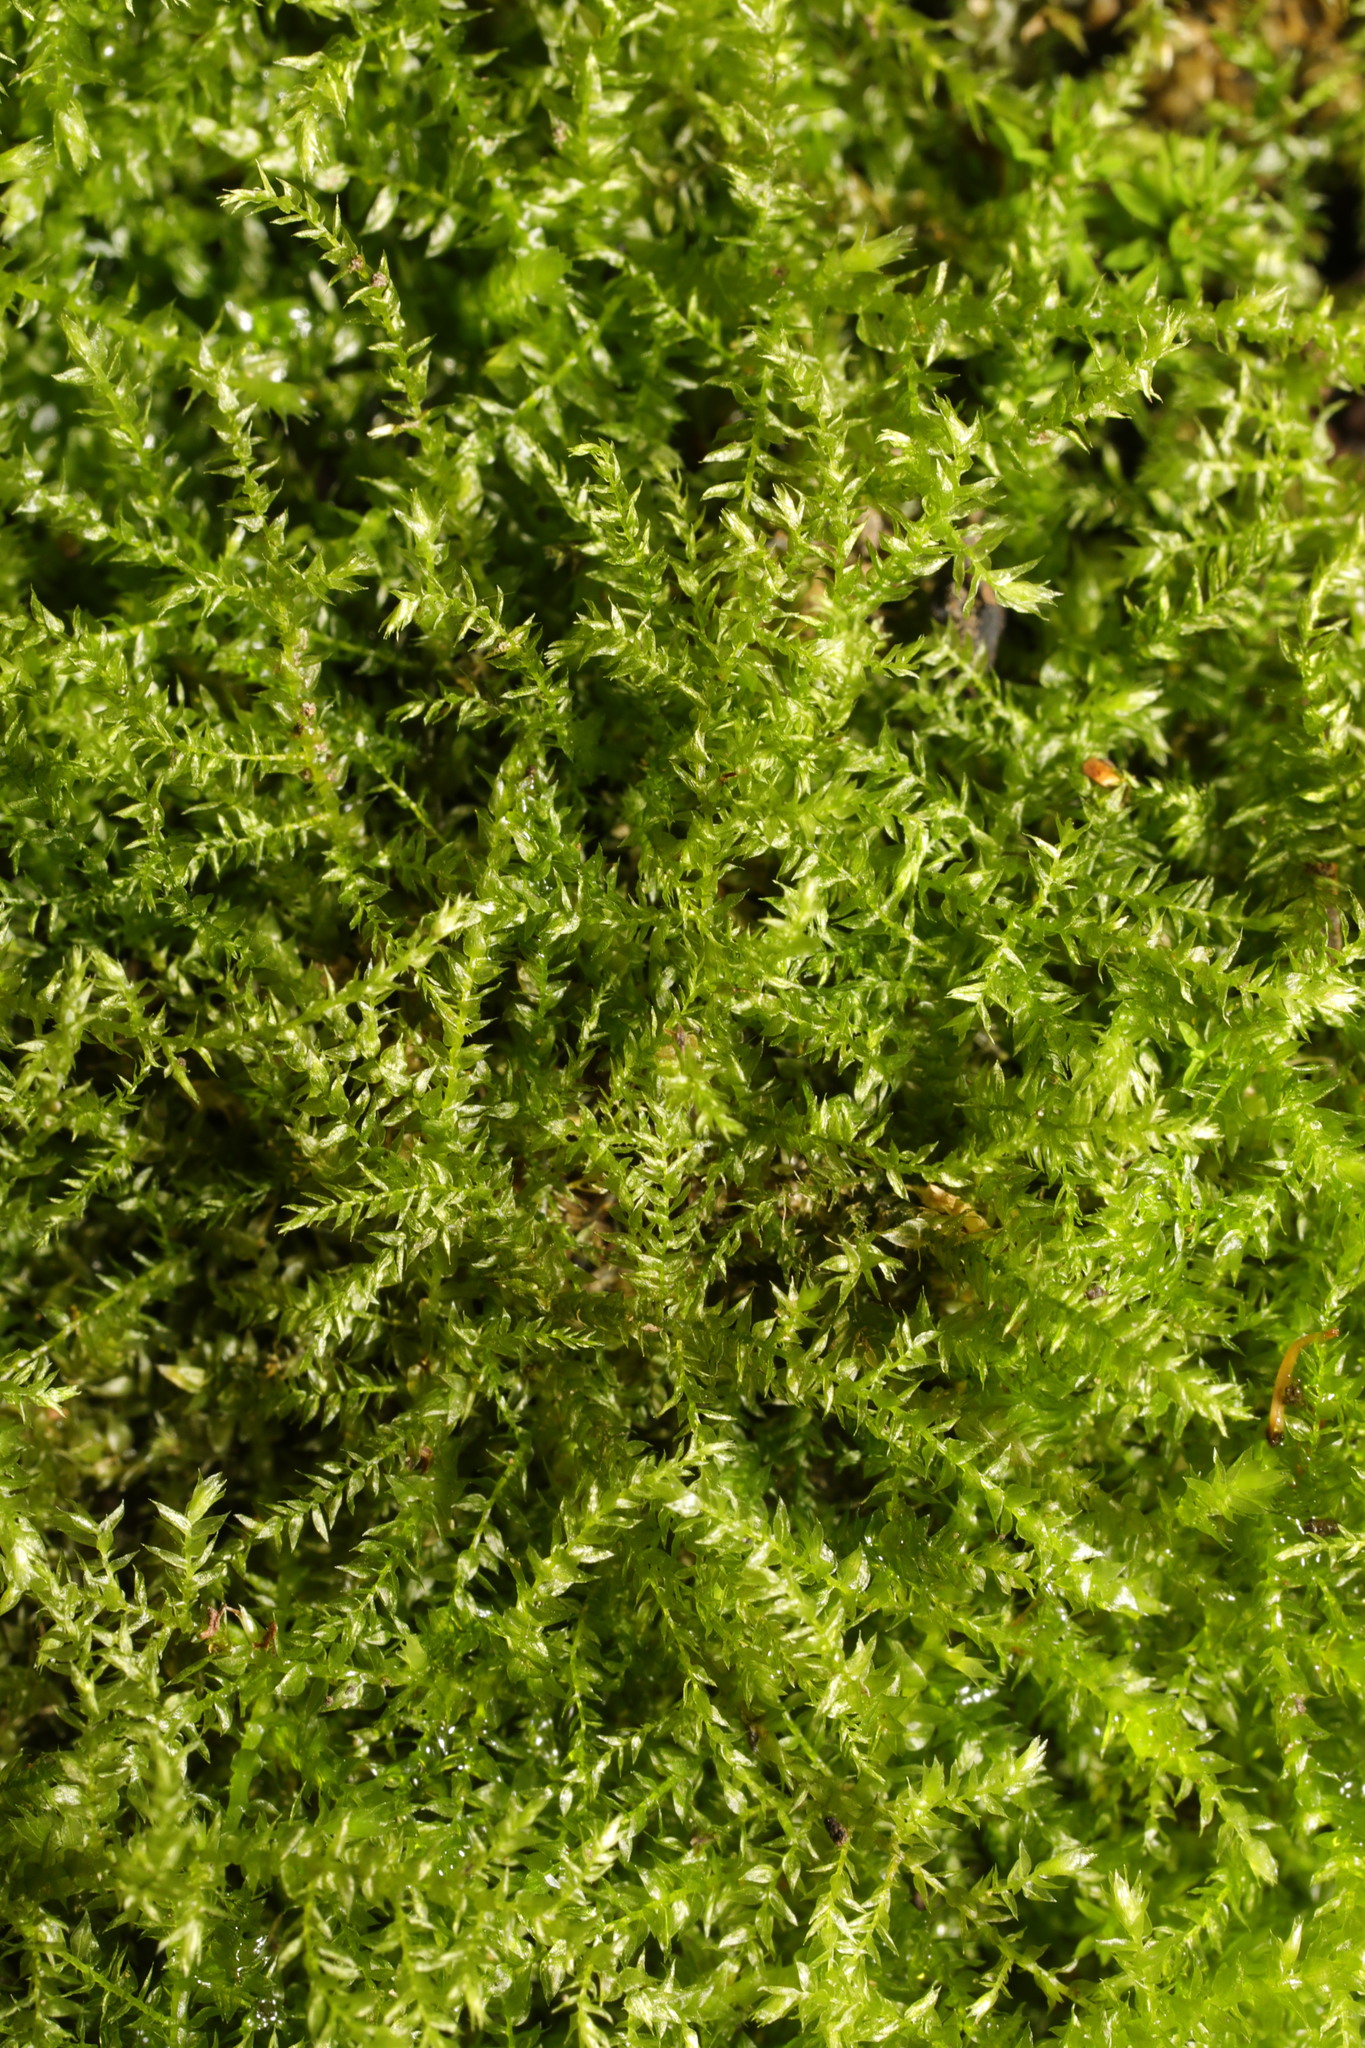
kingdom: Plantae
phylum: Bryophyta
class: Bryopsida
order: Hypnales
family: Brachytheciaceae
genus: Oxyrrhynchium
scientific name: Oxyrrhynchium hians
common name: Spreading beaked moss
